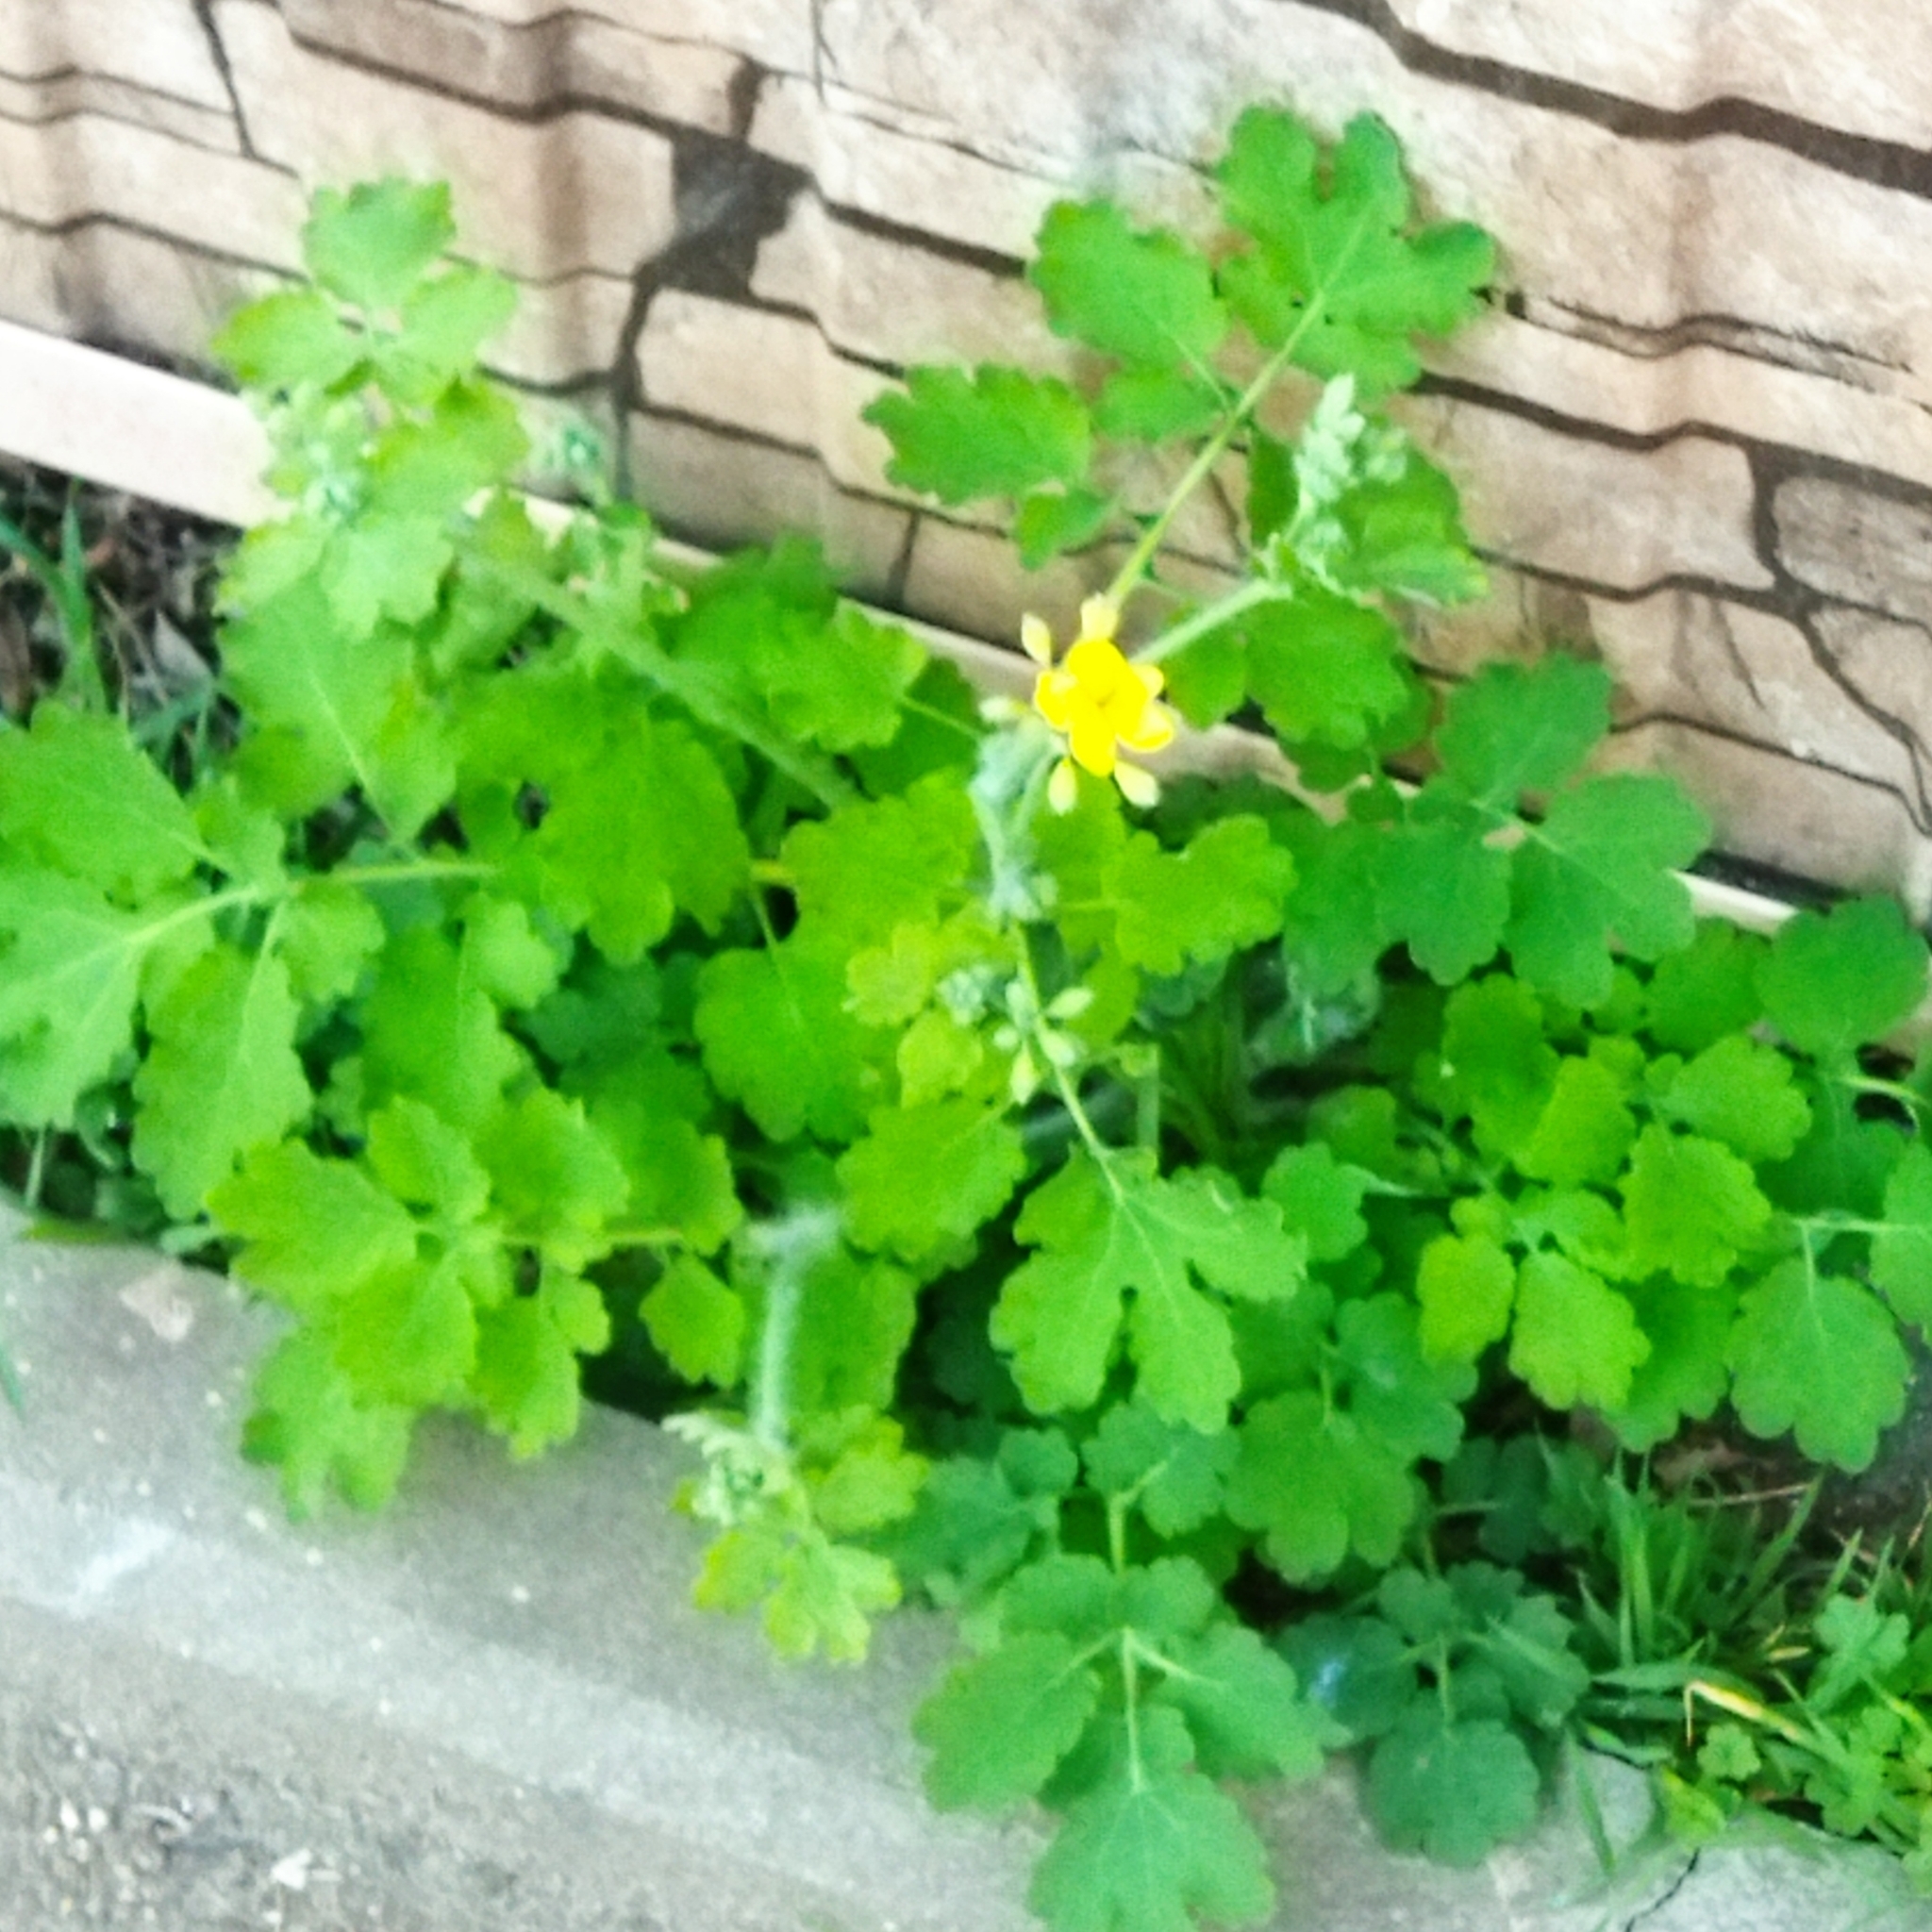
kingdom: Plantae
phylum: Tracheophyta
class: Magnoliopsida
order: Ranunculales
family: Papaveraceae
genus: Chelidonium
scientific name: Chelidonium majus
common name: Greater celandine
